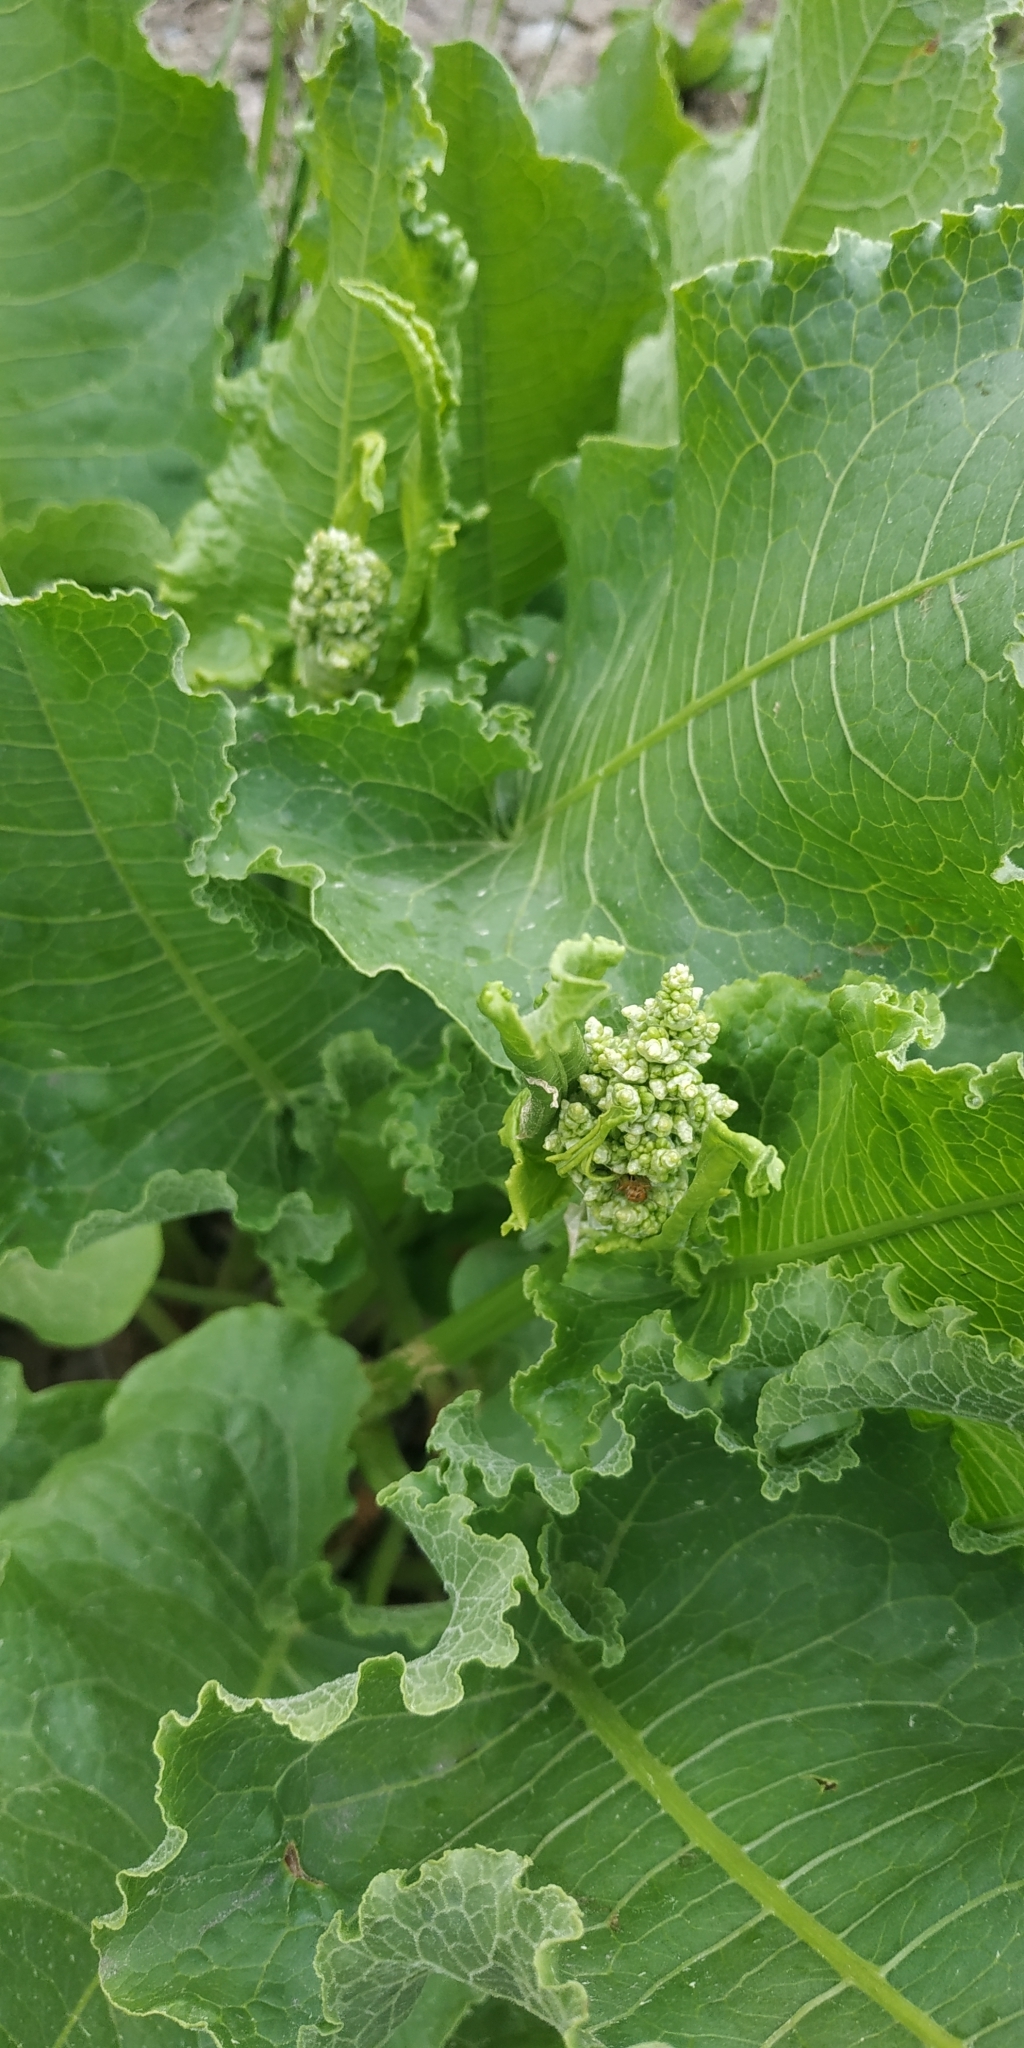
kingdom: Plantae
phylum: Tracheophyta
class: Magnoliopsida
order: Caryophyllales
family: Polygonaceae
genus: Rumex
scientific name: Rumex confertus
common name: Russian dock
